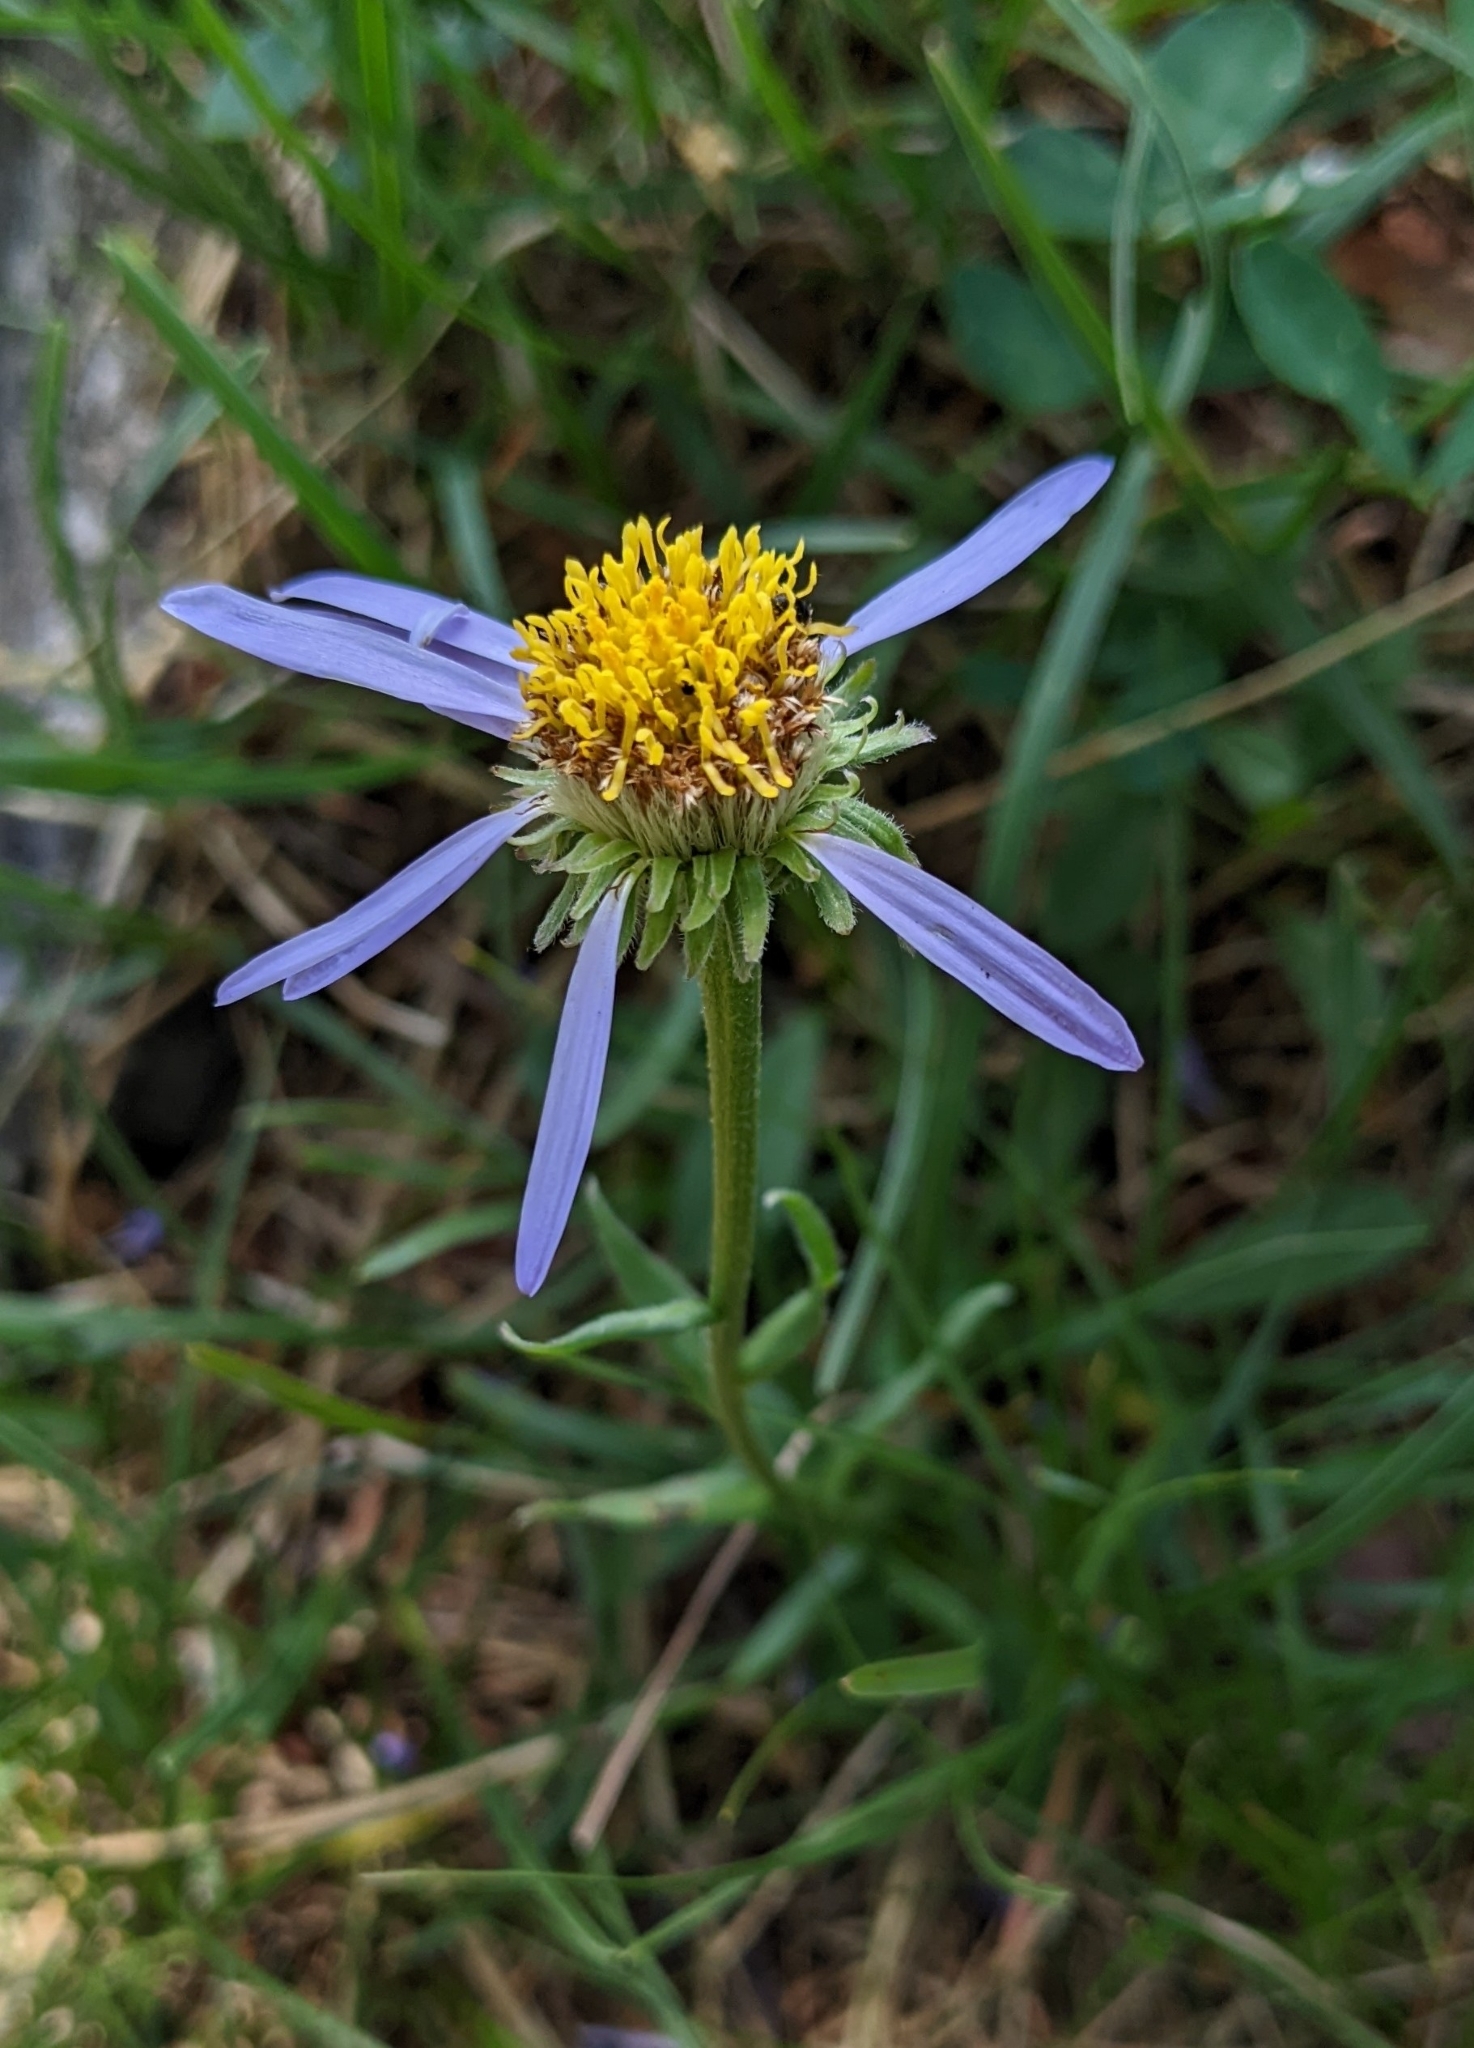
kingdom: Plantae
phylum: Tracheophyta
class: Magnoliopsida
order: Asterales
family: Asteraceae
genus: Aster
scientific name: Aster alpinus
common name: Alpine aster
